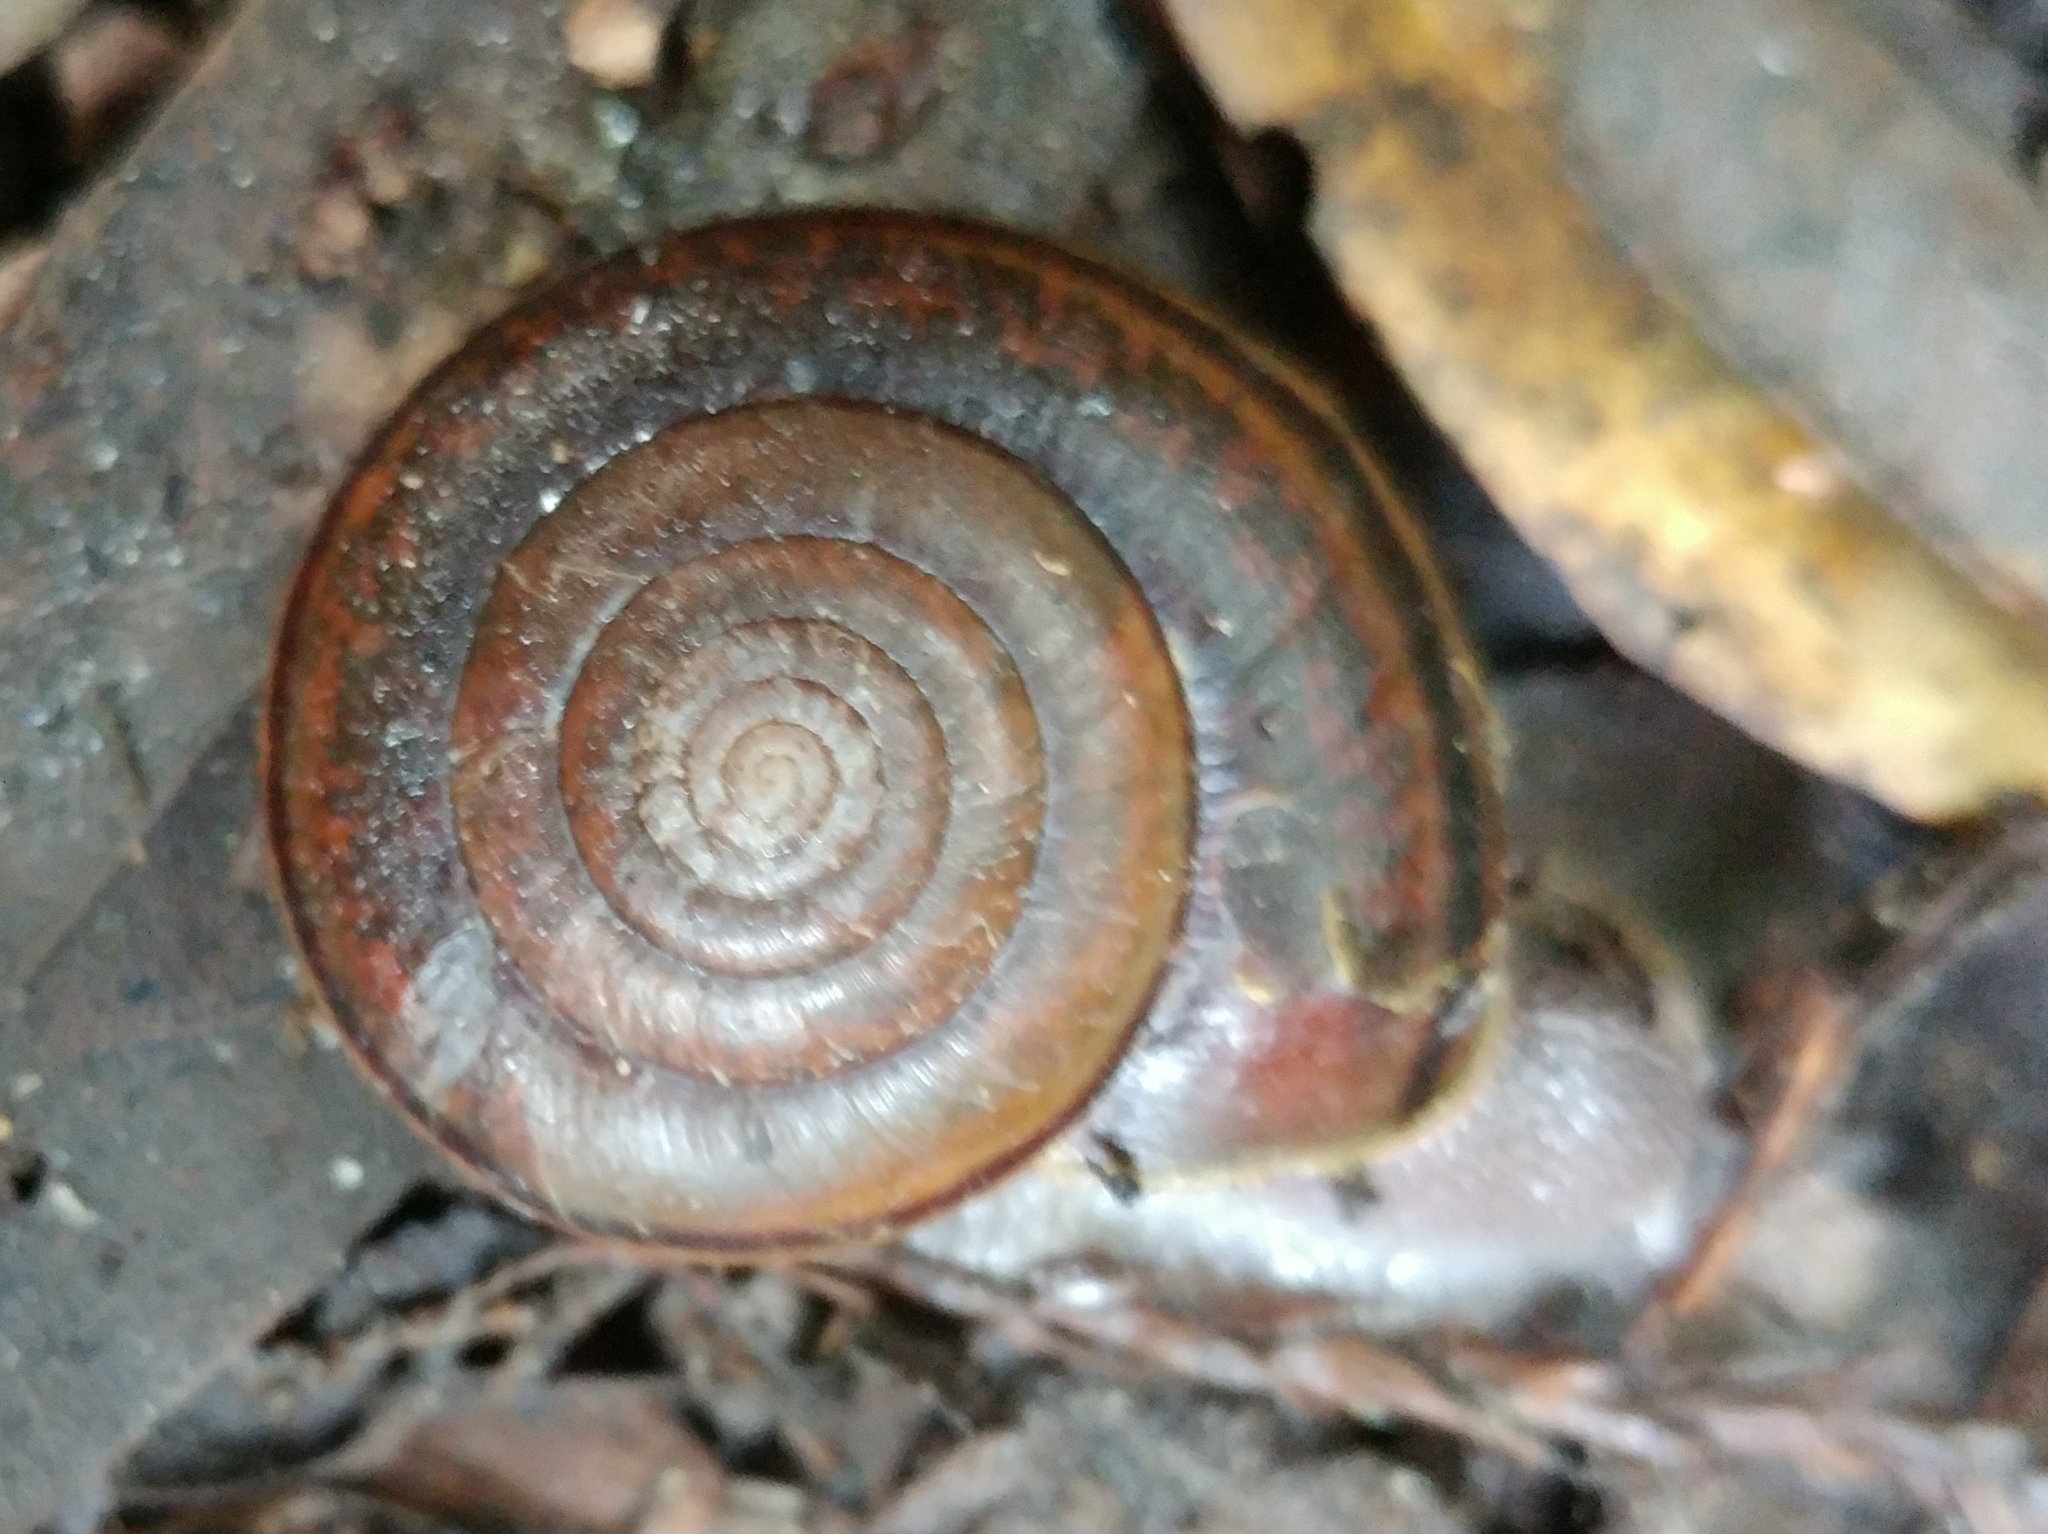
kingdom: Animalia
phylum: Mollusca
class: Gastropoda
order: Stylommatophora
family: Xanthonychidae
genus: Helminthoglypta
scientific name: Helminthoglypta umbilicata
